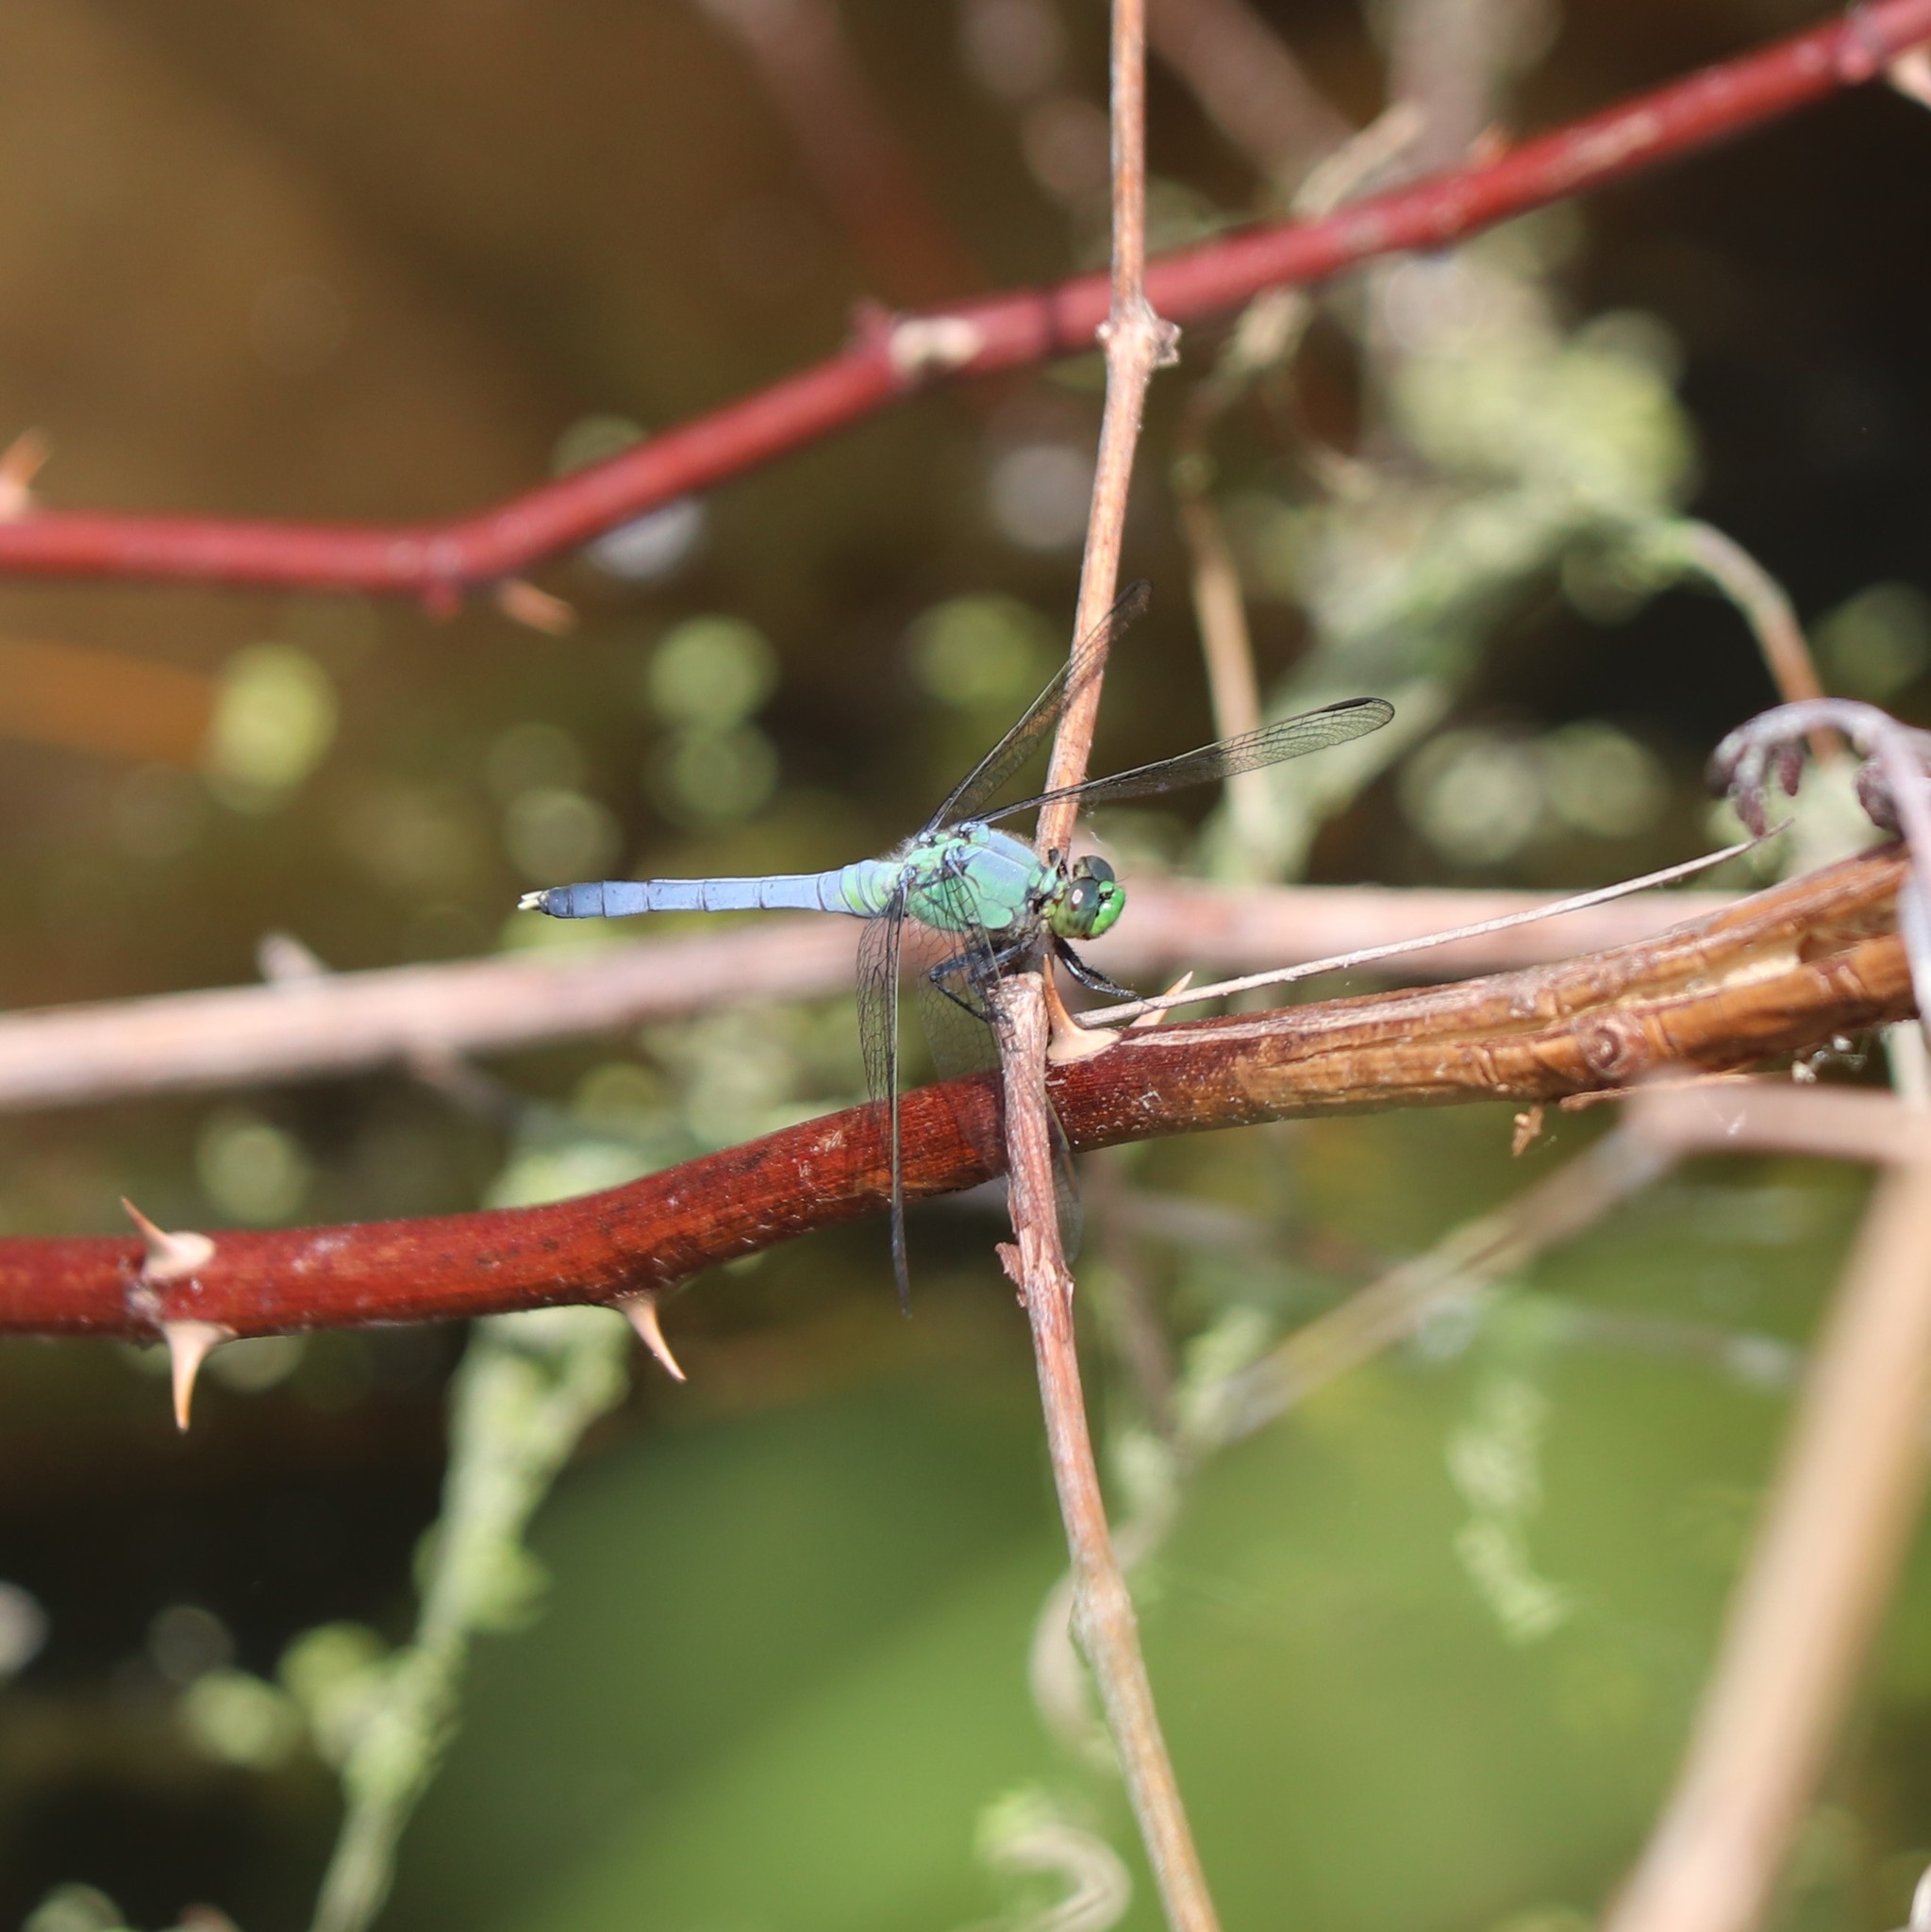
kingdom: Animalia
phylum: Arthropoda
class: Insecta
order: Odonata
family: Libellulidae
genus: Erythemis
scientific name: Erythemis simplicicollis
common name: Eastern pondhawk
